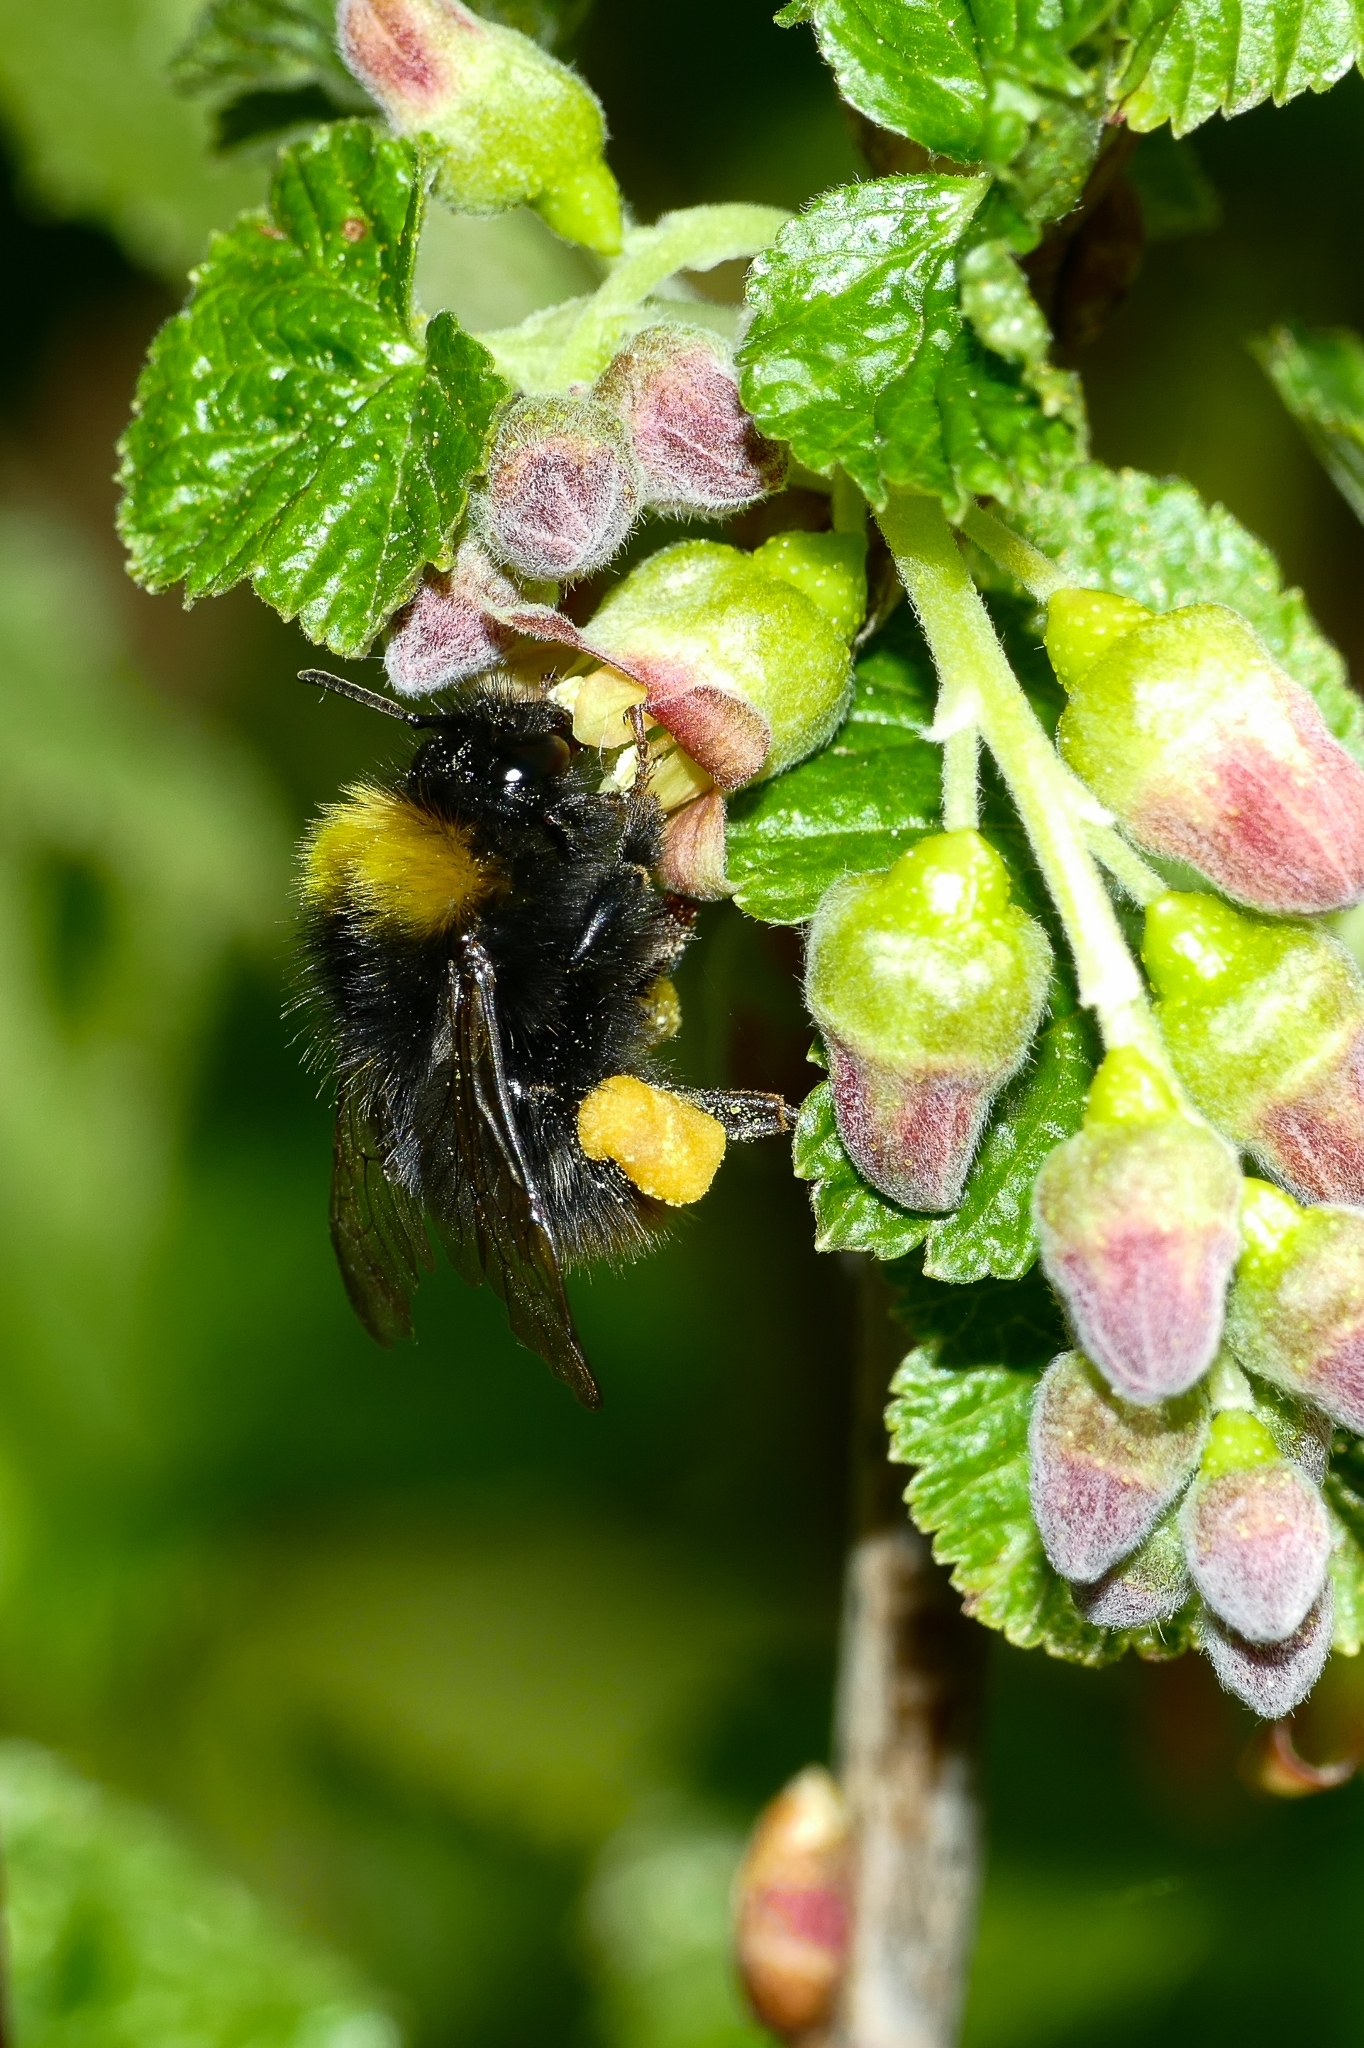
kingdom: Animalia
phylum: Arthropoda
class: Insecta
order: Hymenoptera
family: Apidae
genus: Bombus
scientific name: Bombus pratorum
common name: Early humble-bee
